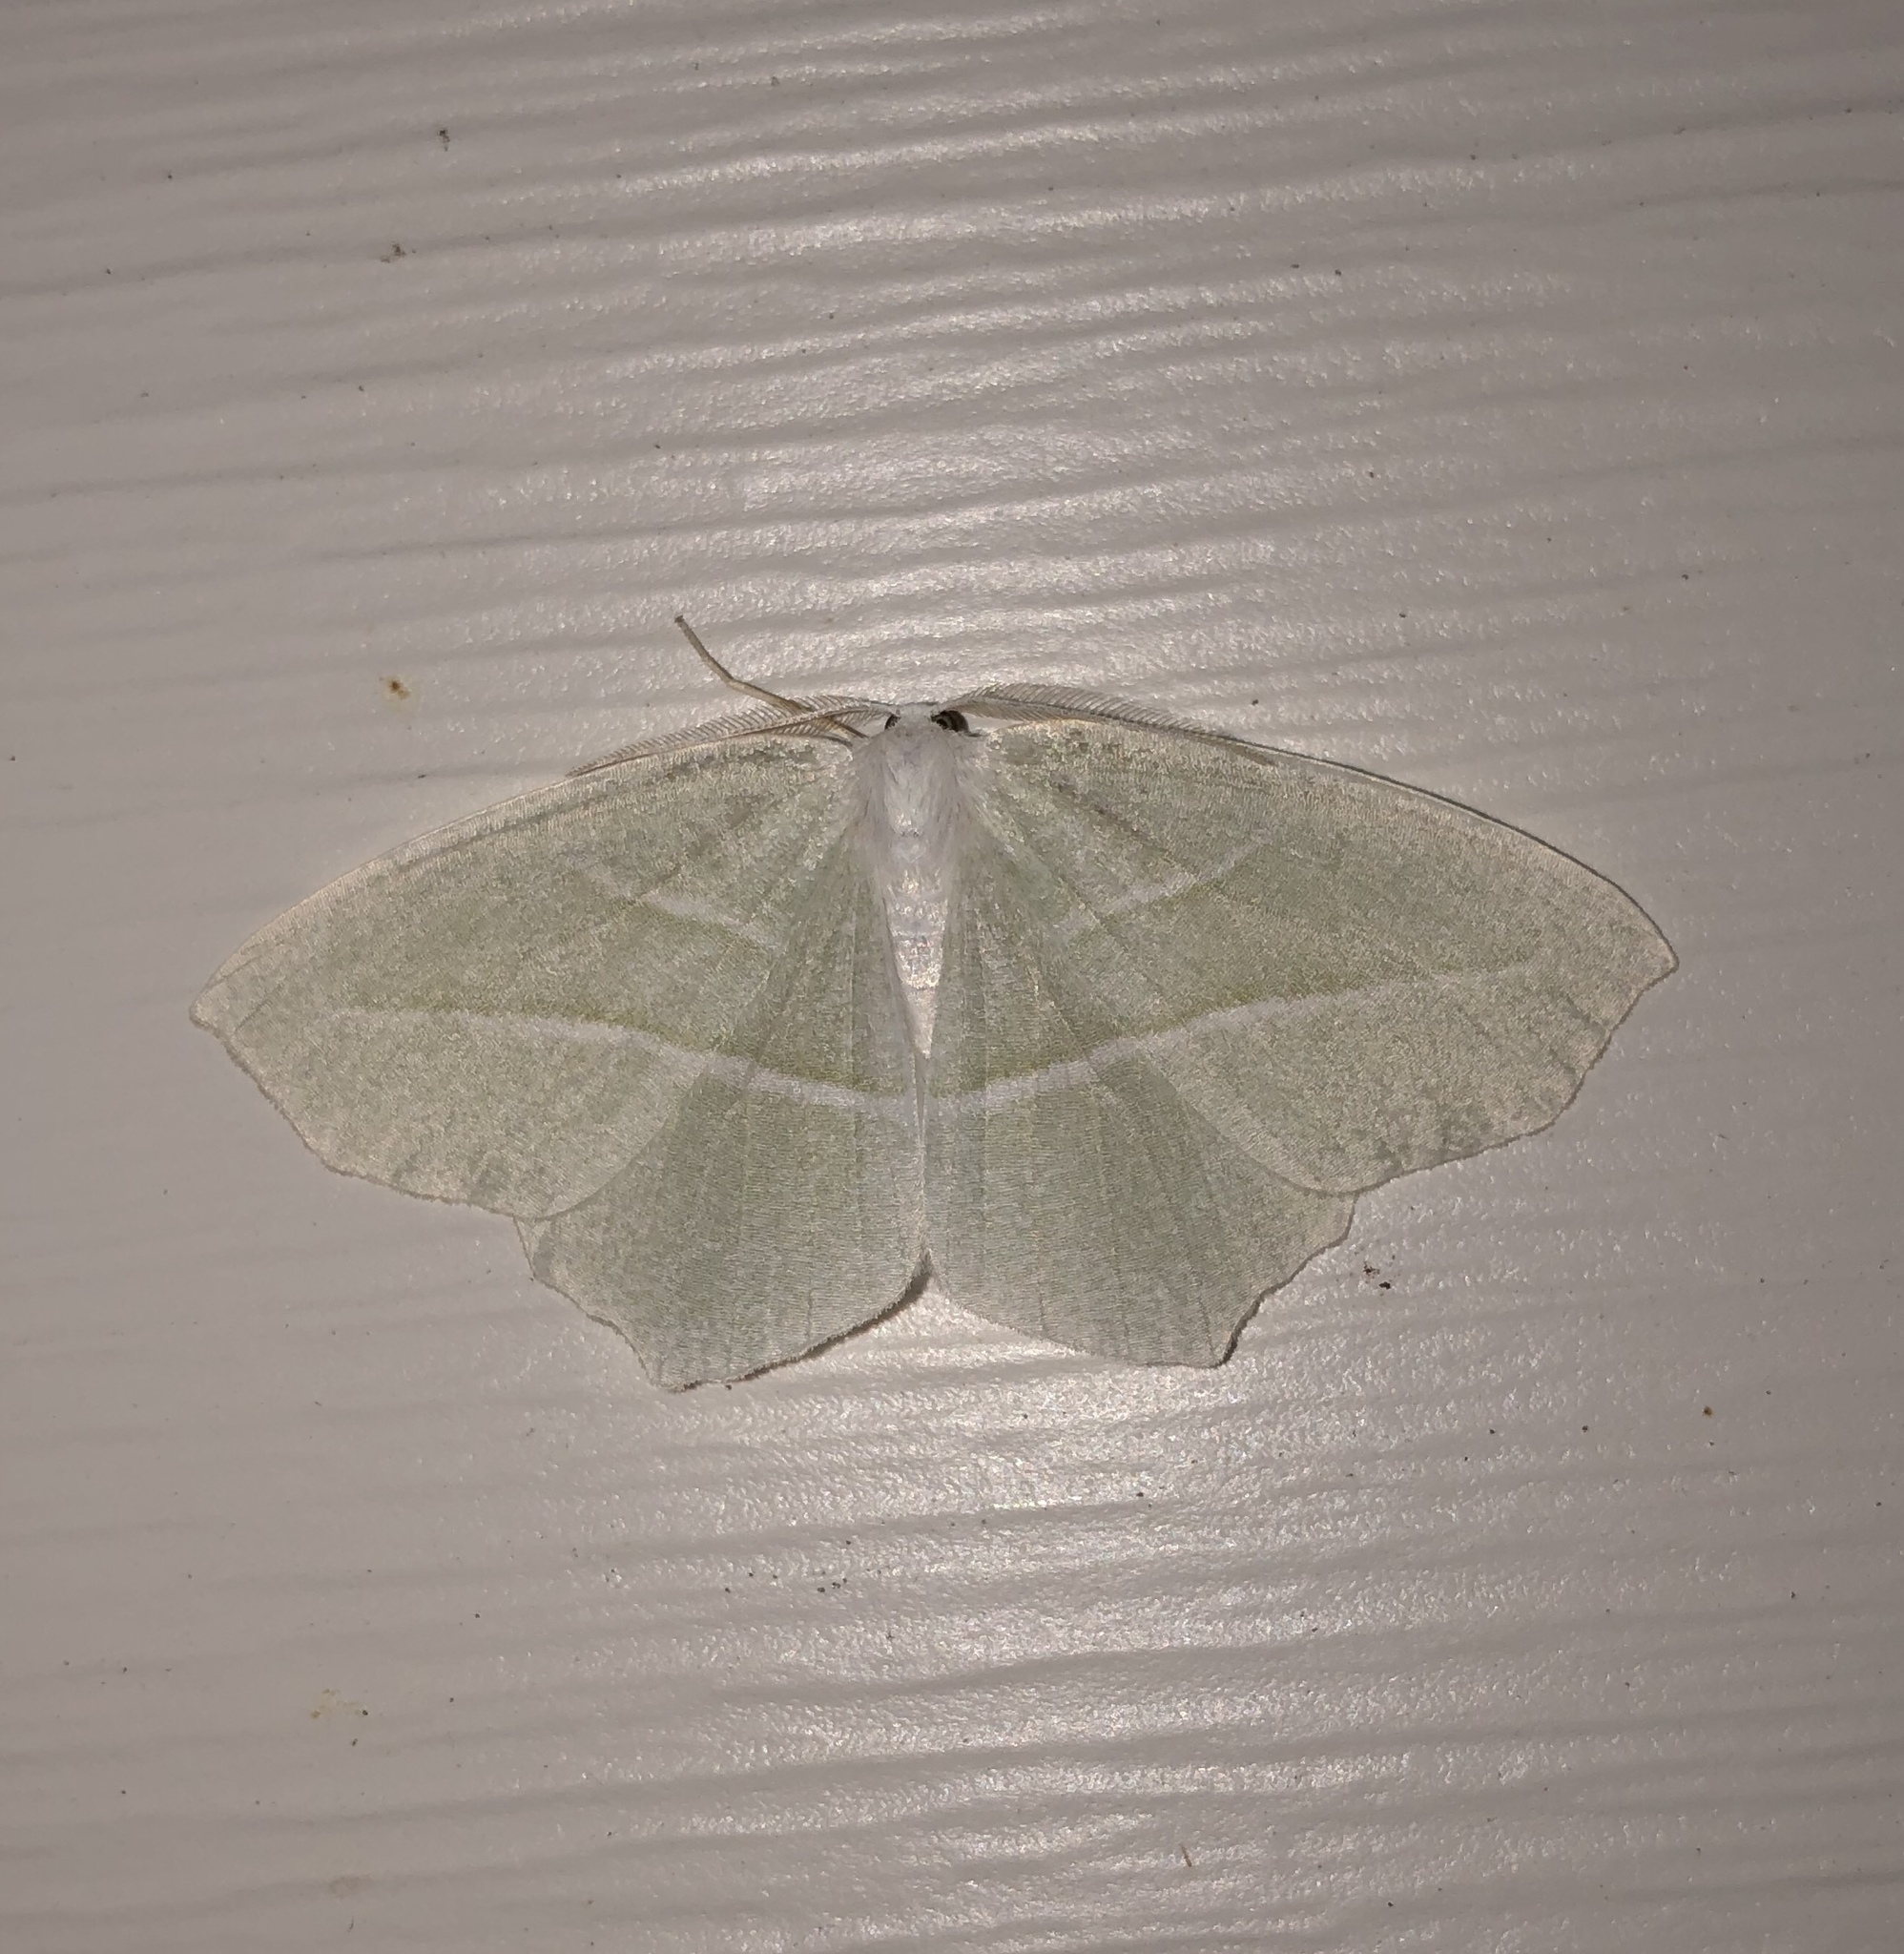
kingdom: Animalia
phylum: Arthropoda
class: Insecta
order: Lepidoptera
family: Geometridae
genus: Campaea
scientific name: Campaea perlata
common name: Fringed looper
